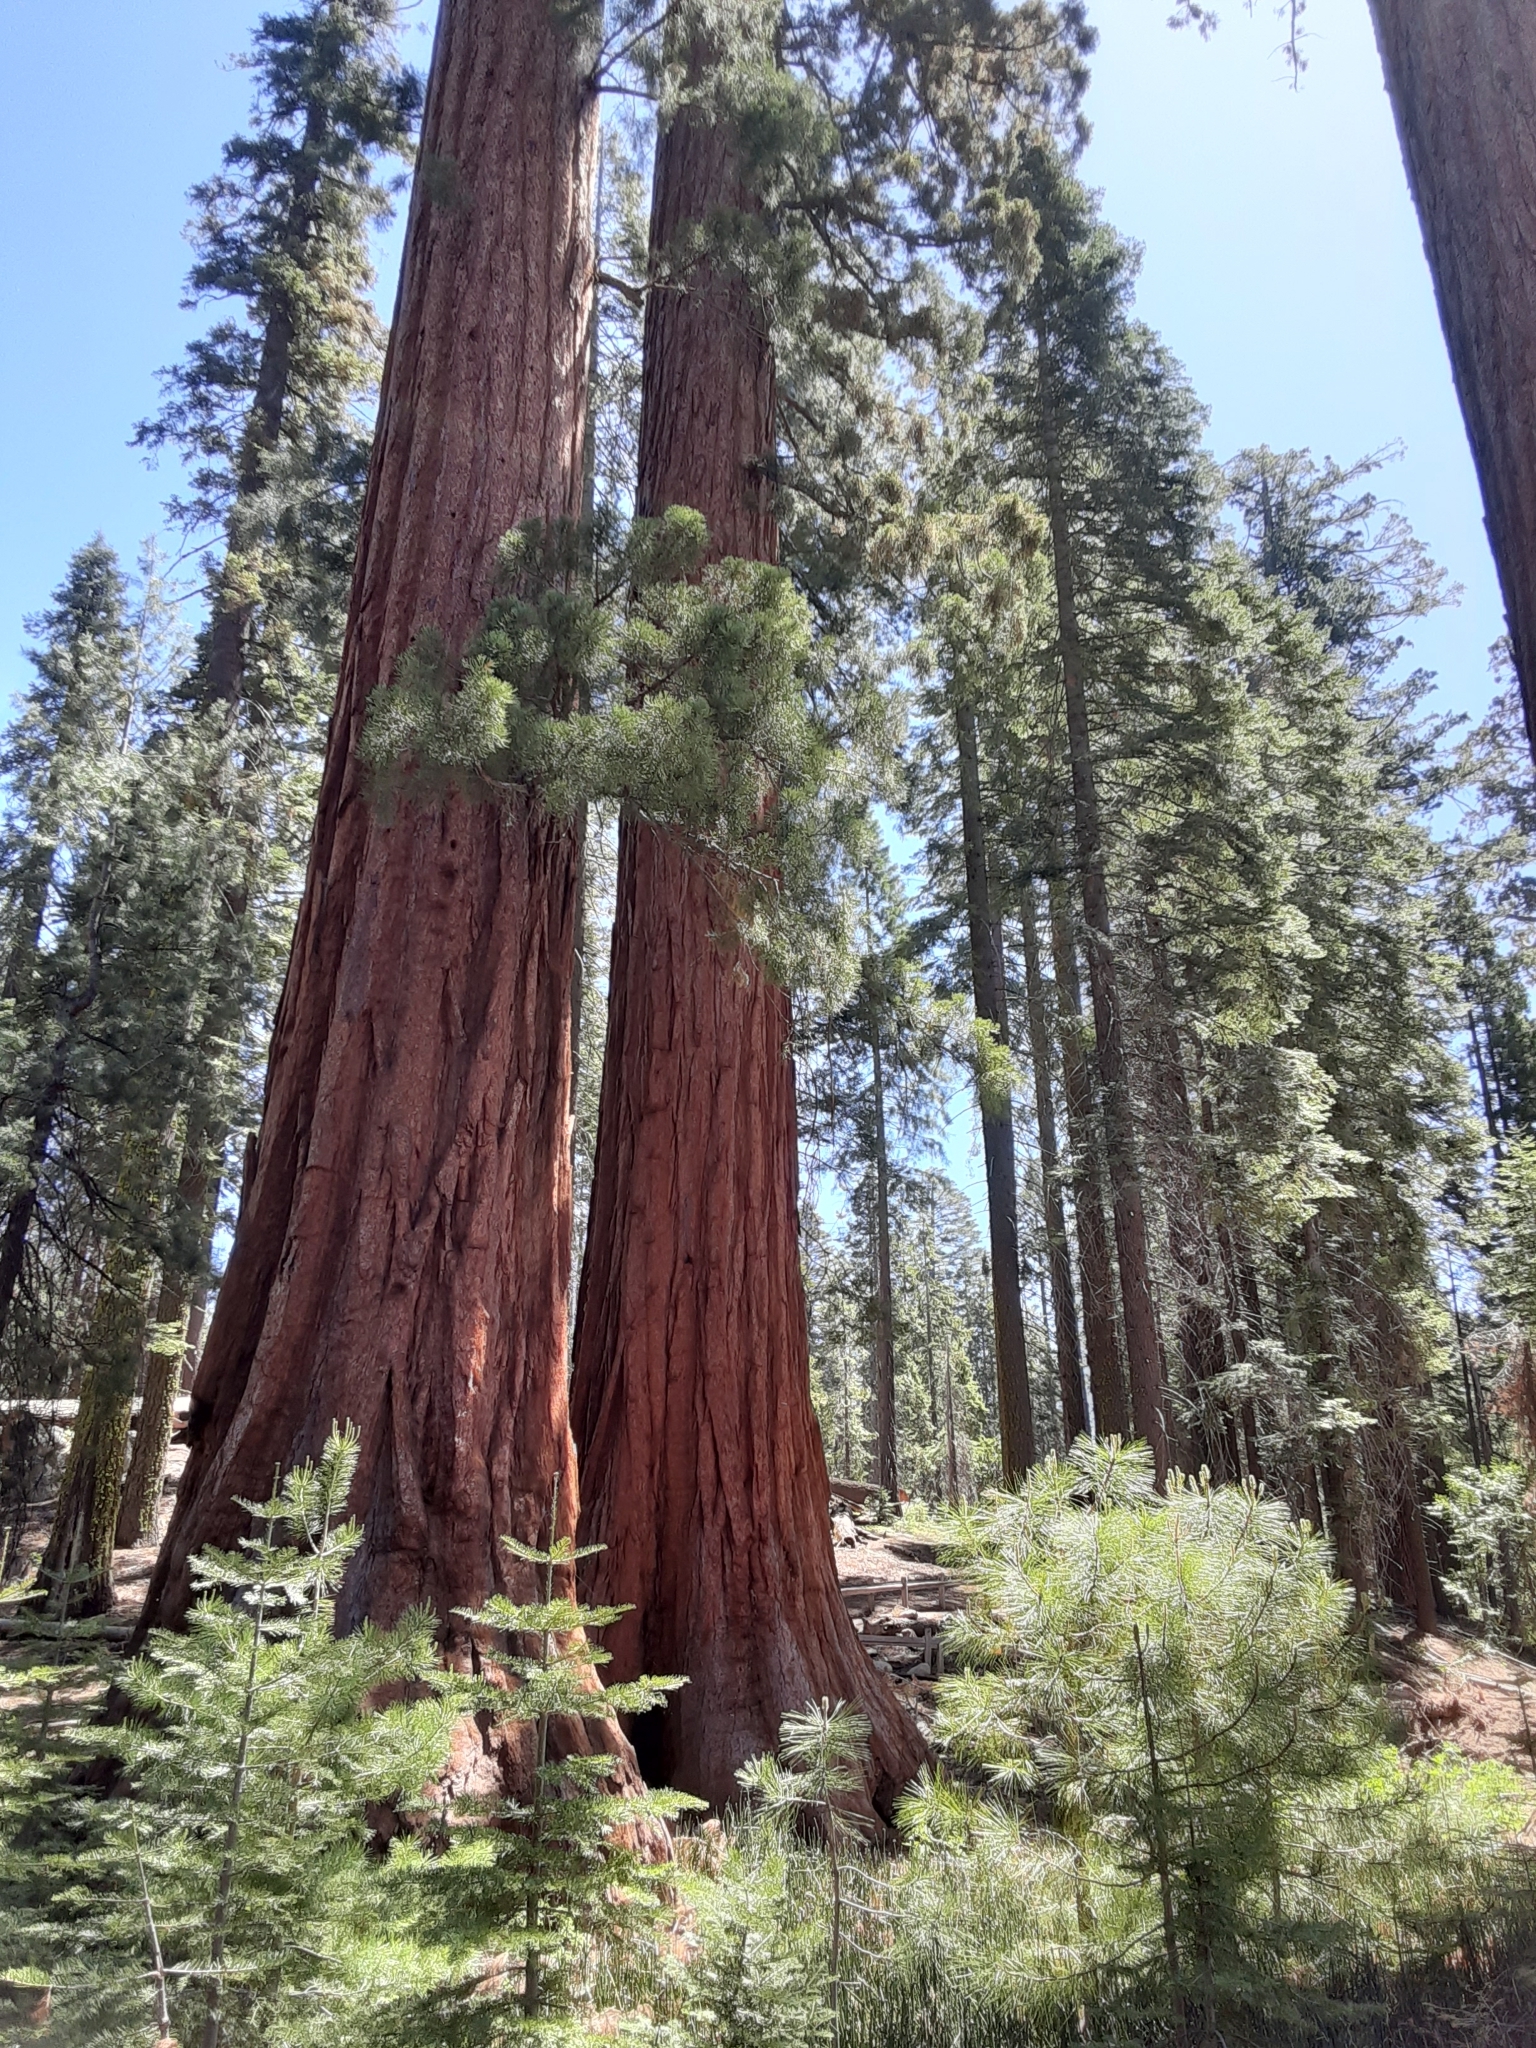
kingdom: Plantae
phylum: Tracheophyta
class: Pinopsida
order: Pinales
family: Cupressaceae
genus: Sequoiadendron
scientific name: Sequoiadendron giganteum
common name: Wellingtonia
